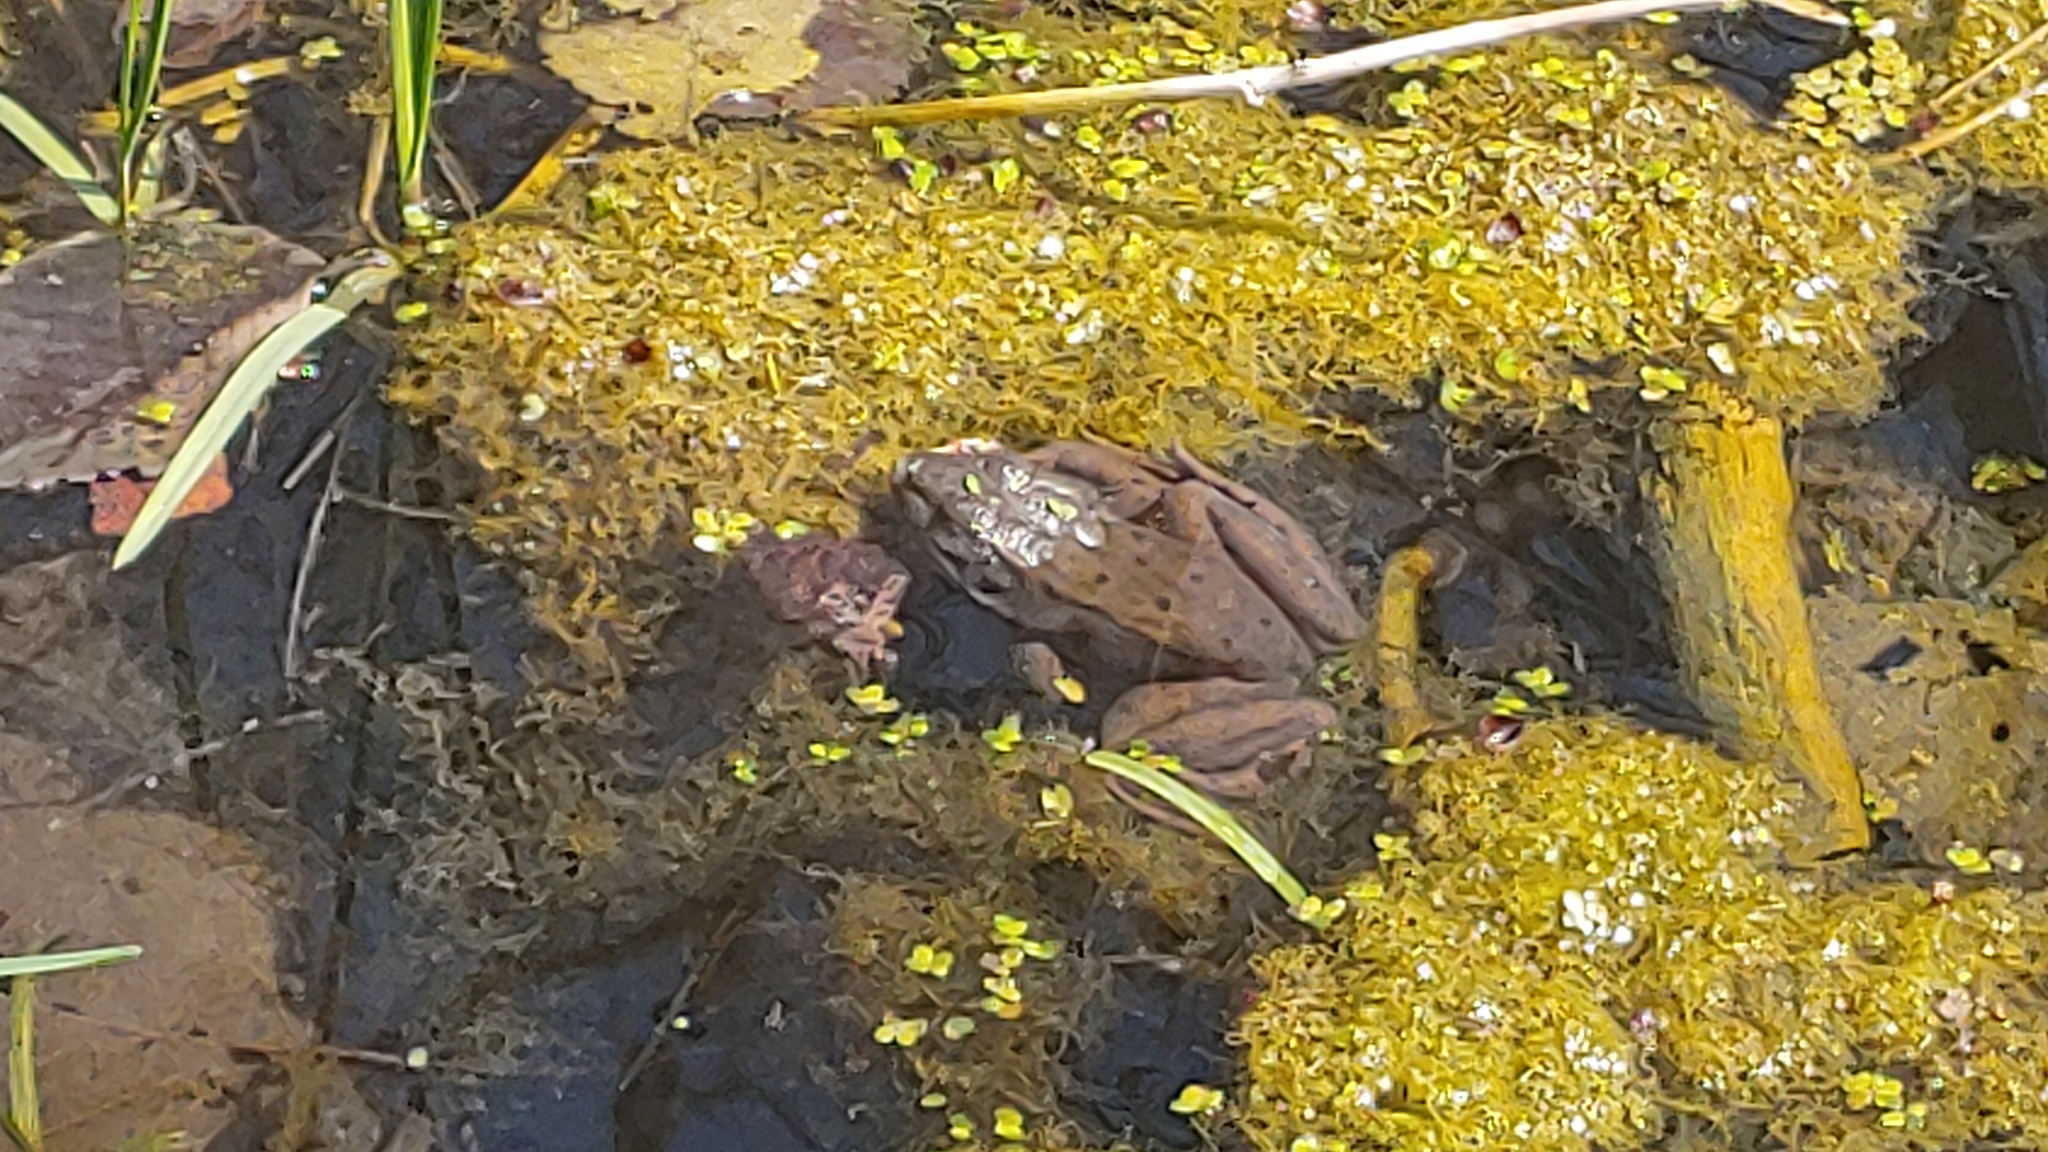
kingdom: Animalia
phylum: Chordata
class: Amphibia
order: Anura
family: Ranidae
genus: Lithobates
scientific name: Lithobates clamitans
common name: Green frog
